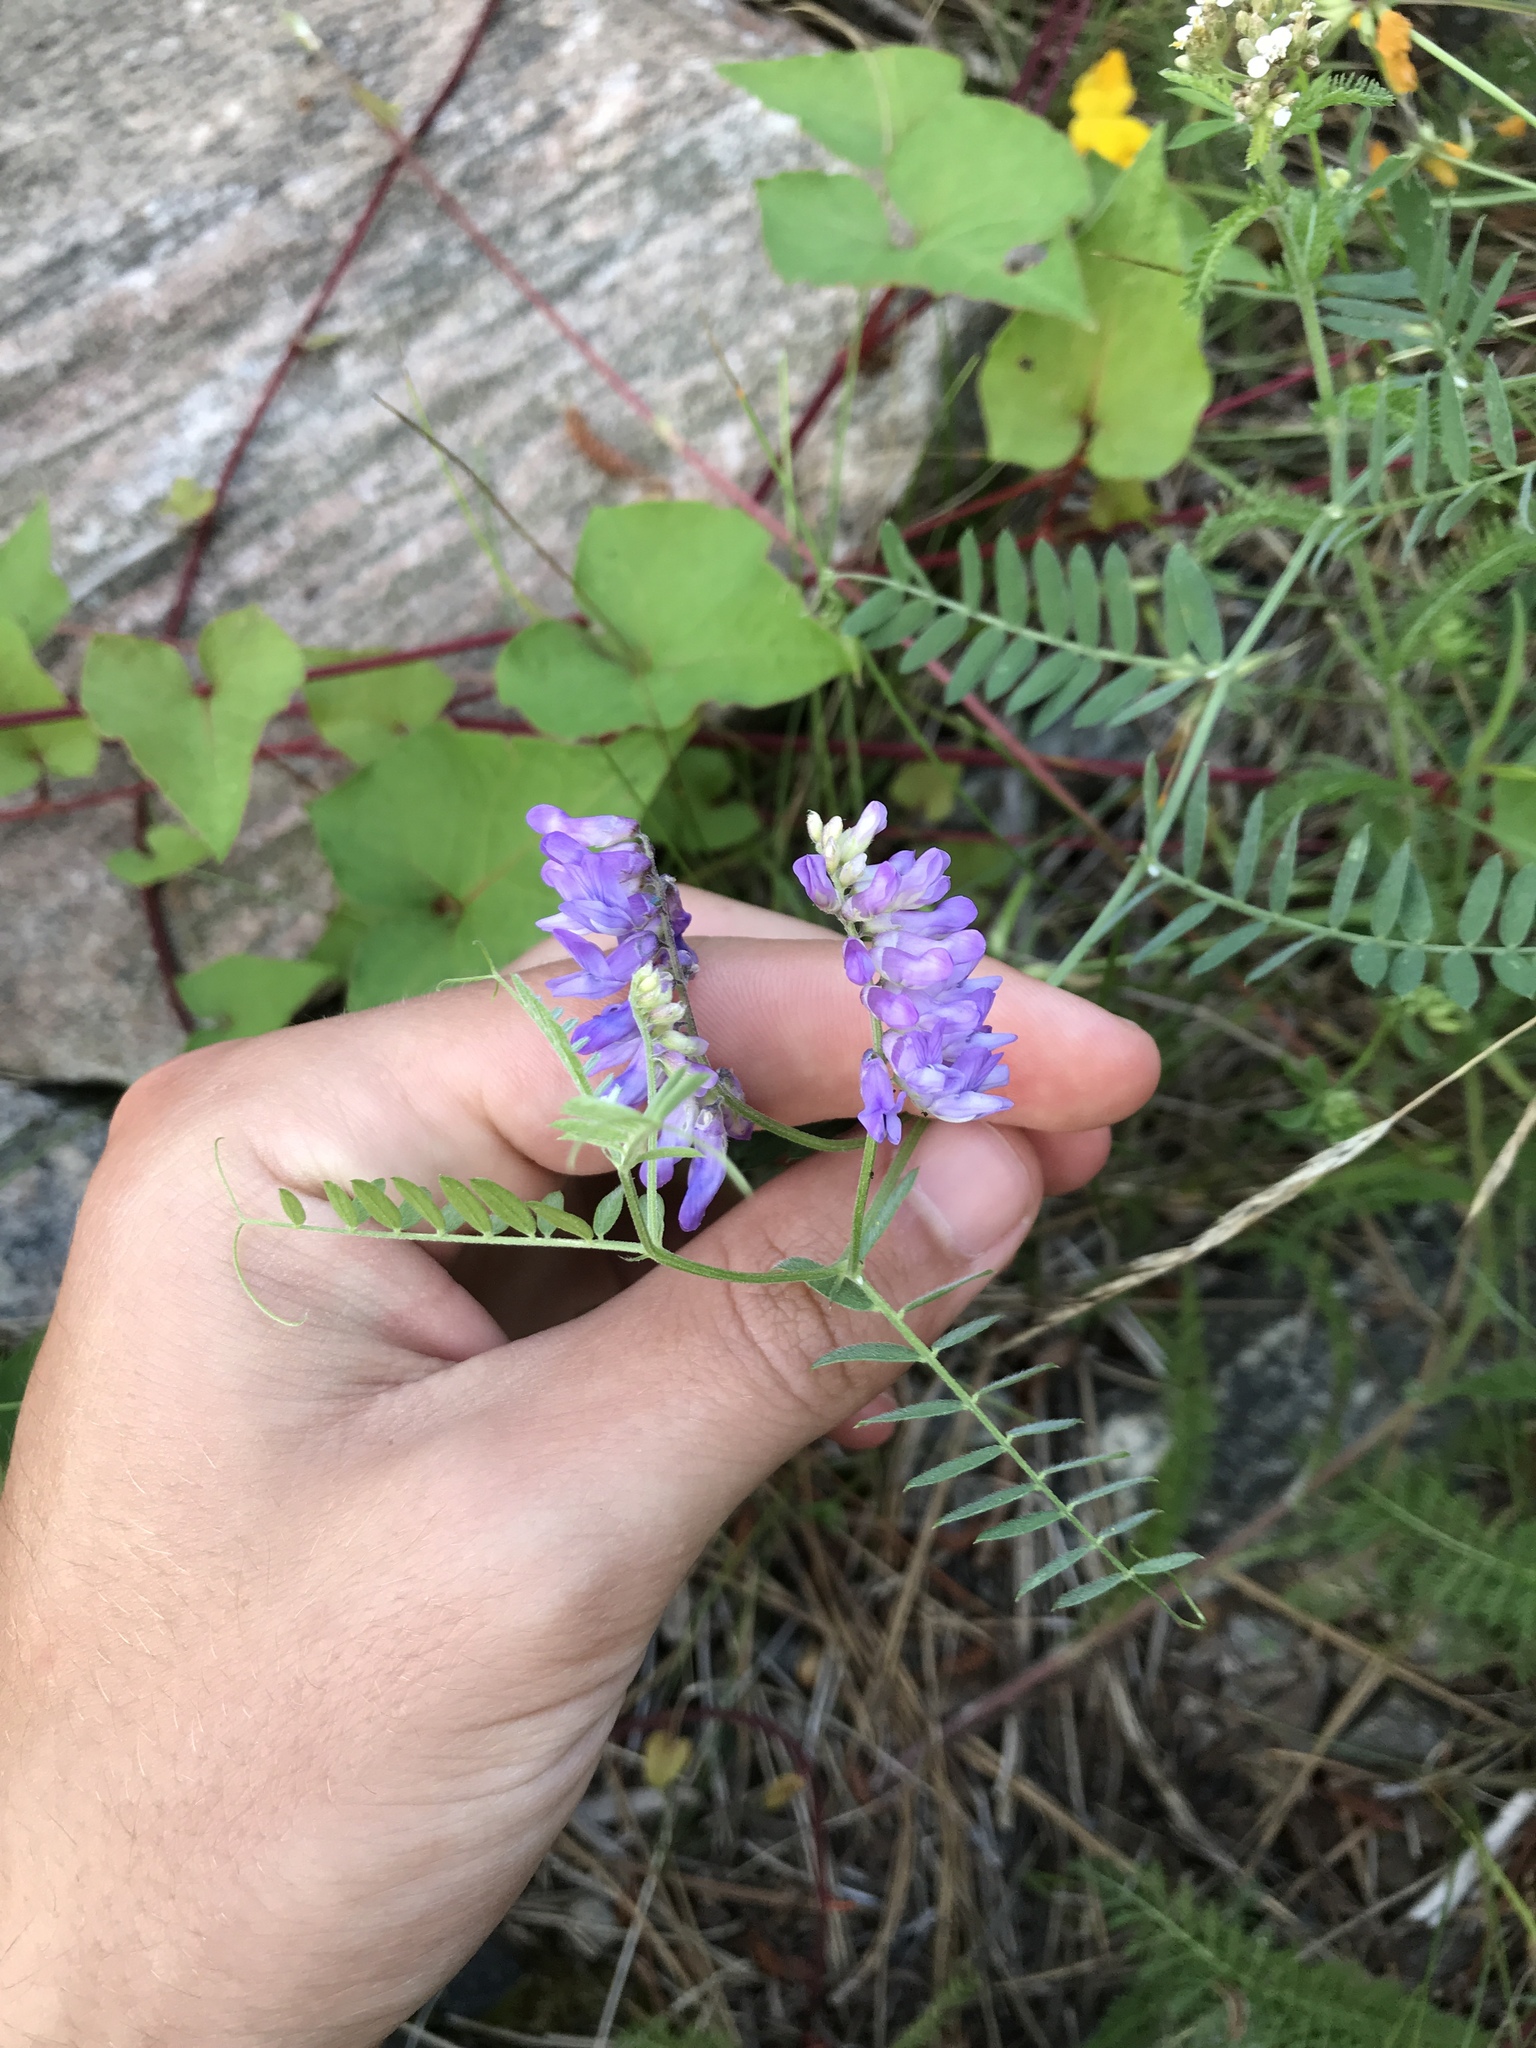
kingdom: Plantae
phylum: Tracheophyta
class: Magnoliopsida
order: Fabales
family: Fabaceae
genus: Vicia
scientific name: Vicia cracca
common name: Bird vetch
